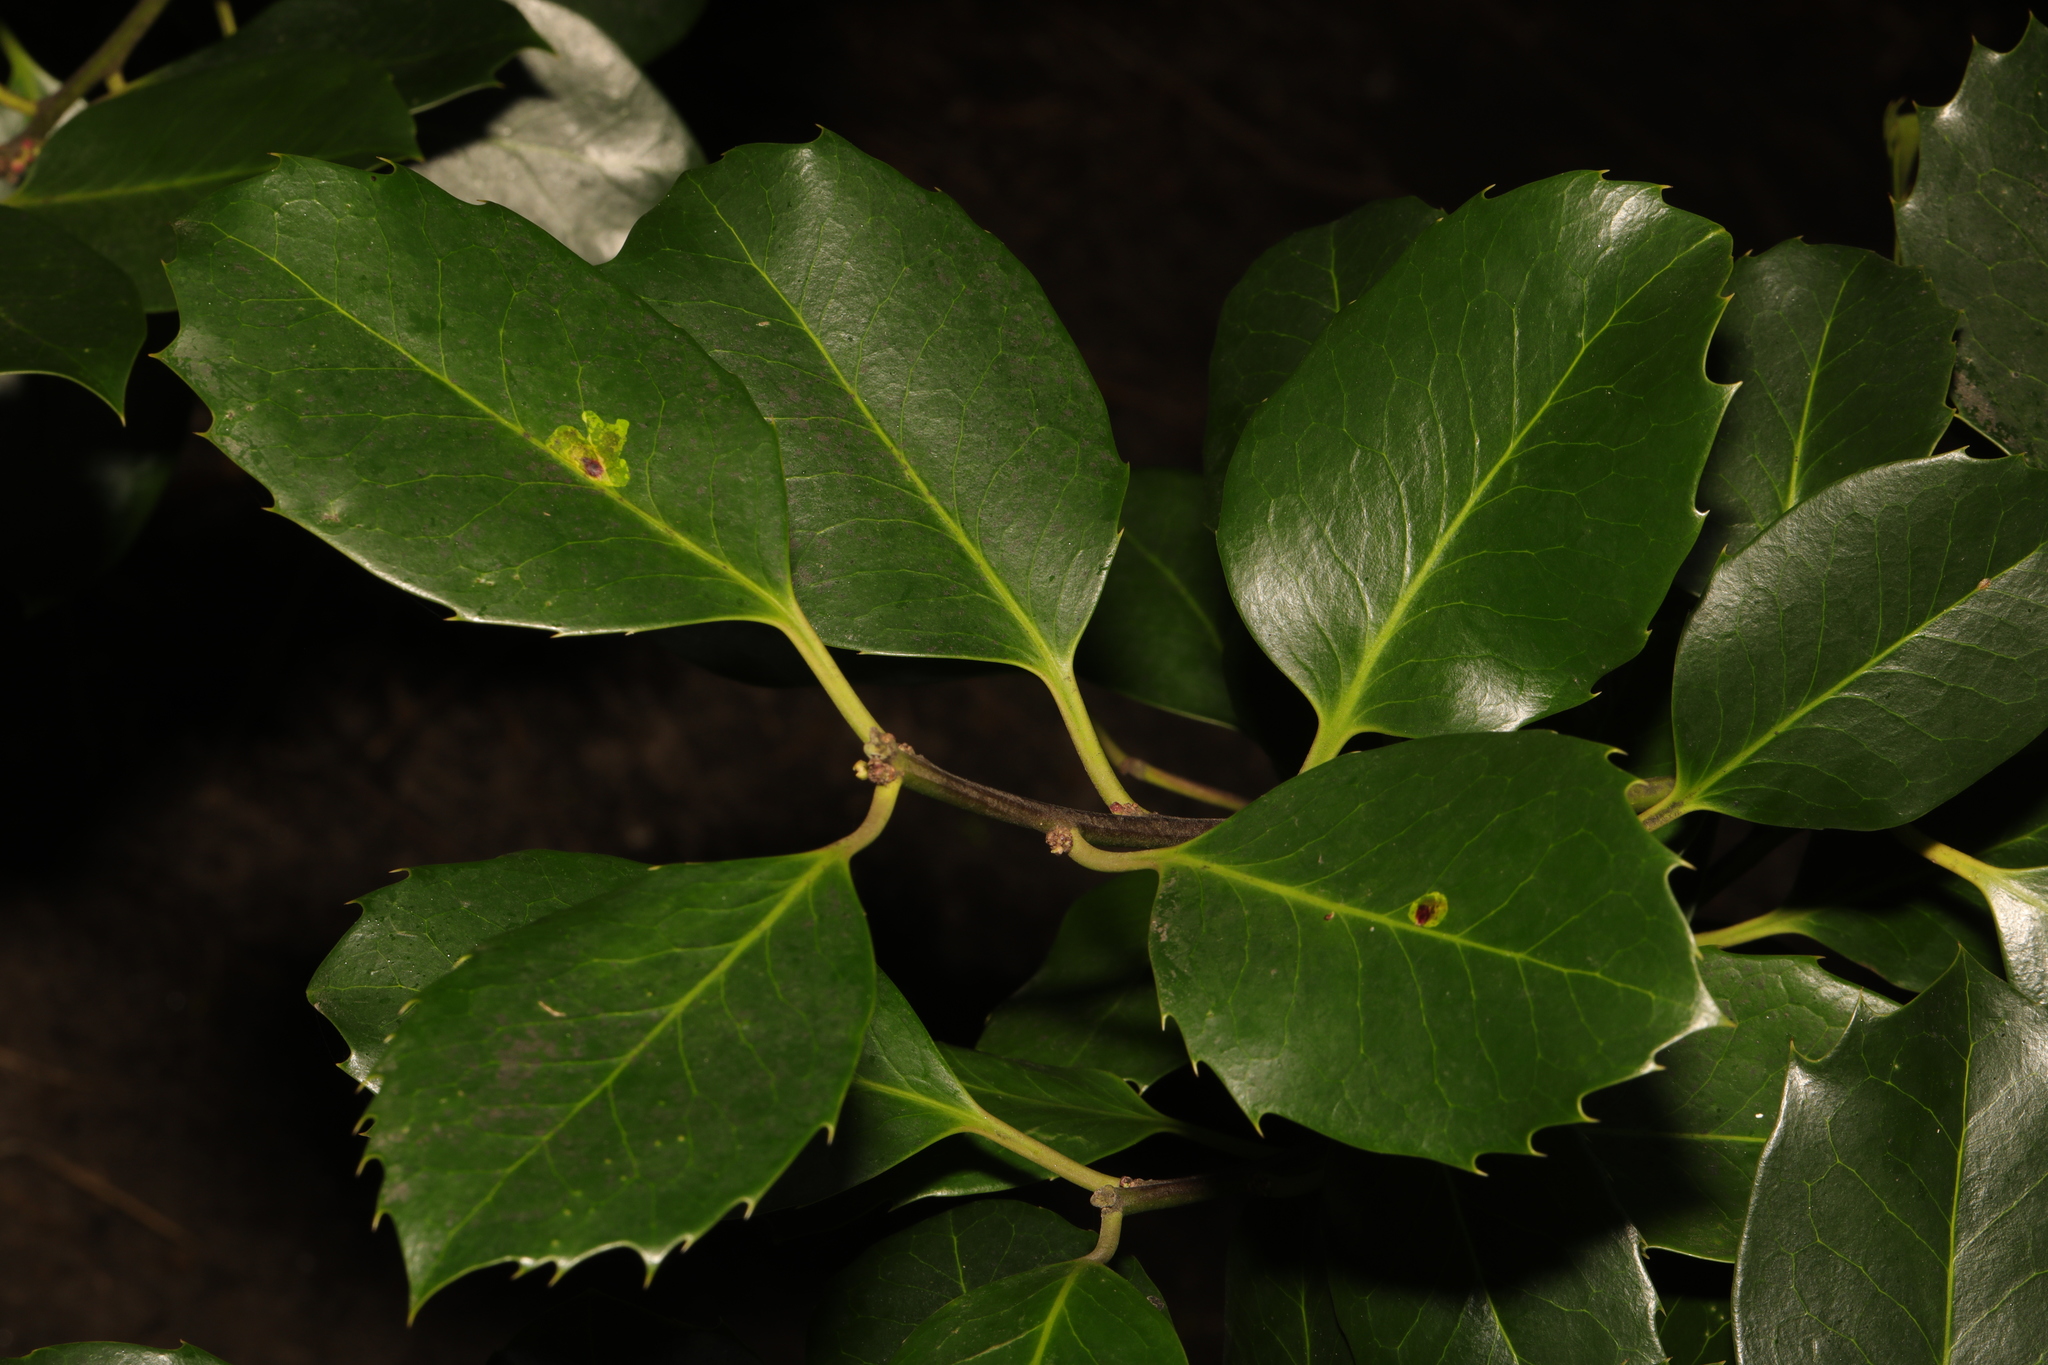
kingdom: Plantae
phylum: Tracheophyta
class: Magnoliopsida
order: Aquifoliales
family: Aquifoliaceae
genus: Ilex
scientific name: Ilex aquifolium
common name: English holly
